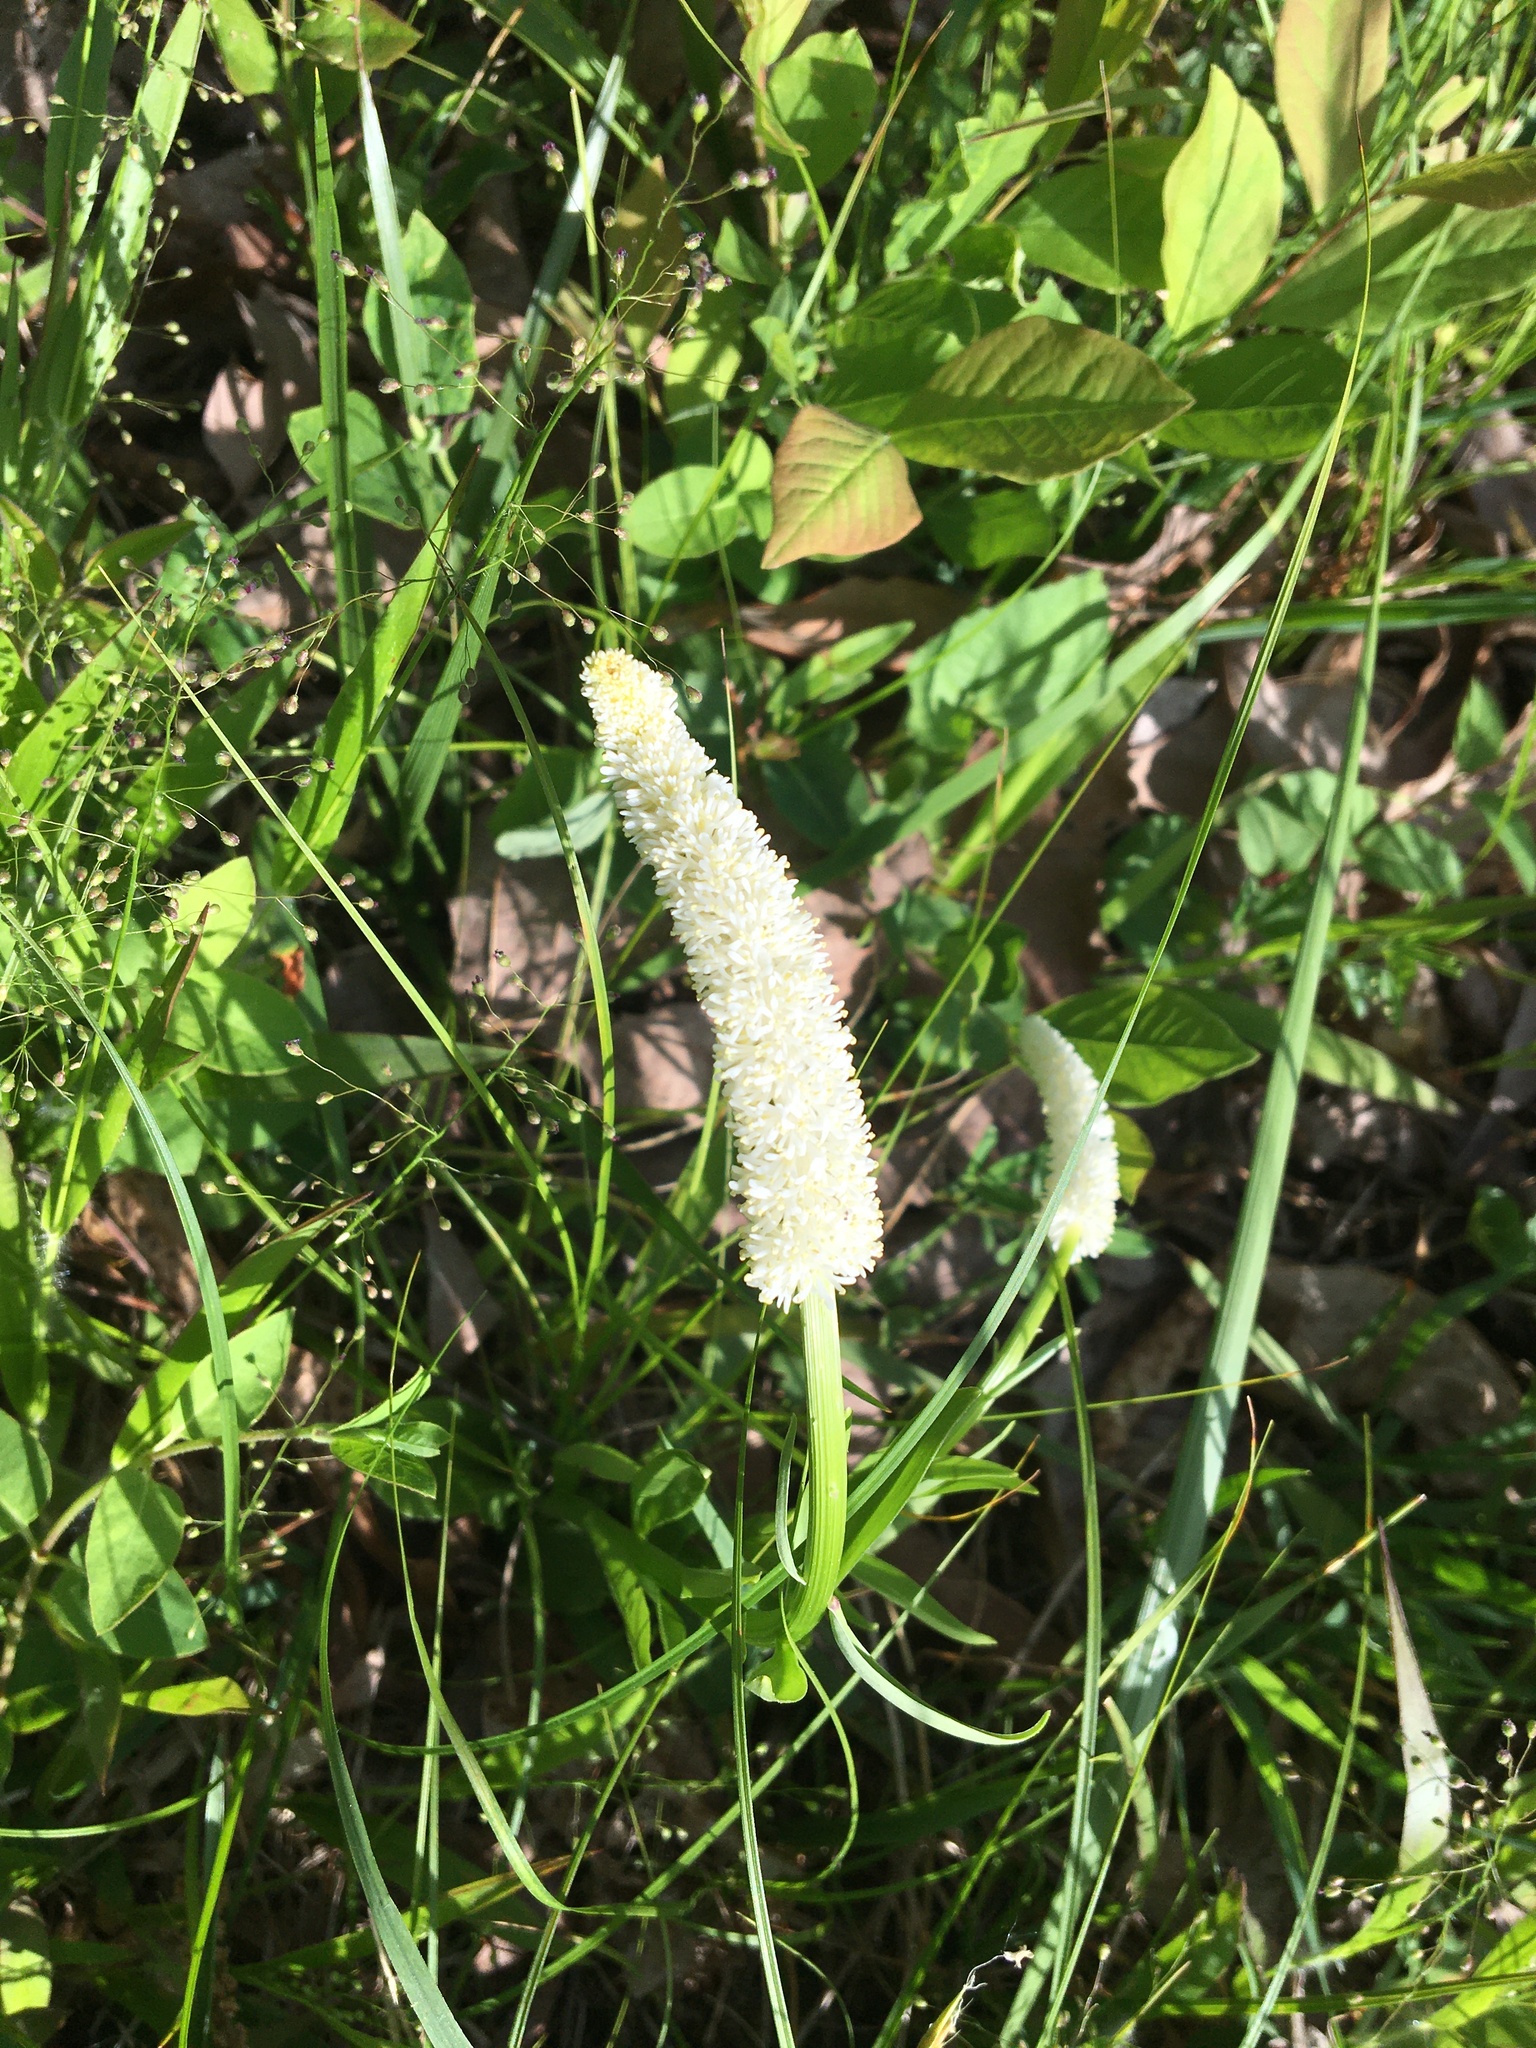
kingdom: Plantae
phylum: Tracheophyta
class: Liliopsida
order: Liliales
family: Melanthiaceae
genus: Chamaelirium
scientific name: Chamaelirium luteum
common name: Fairy-wand
